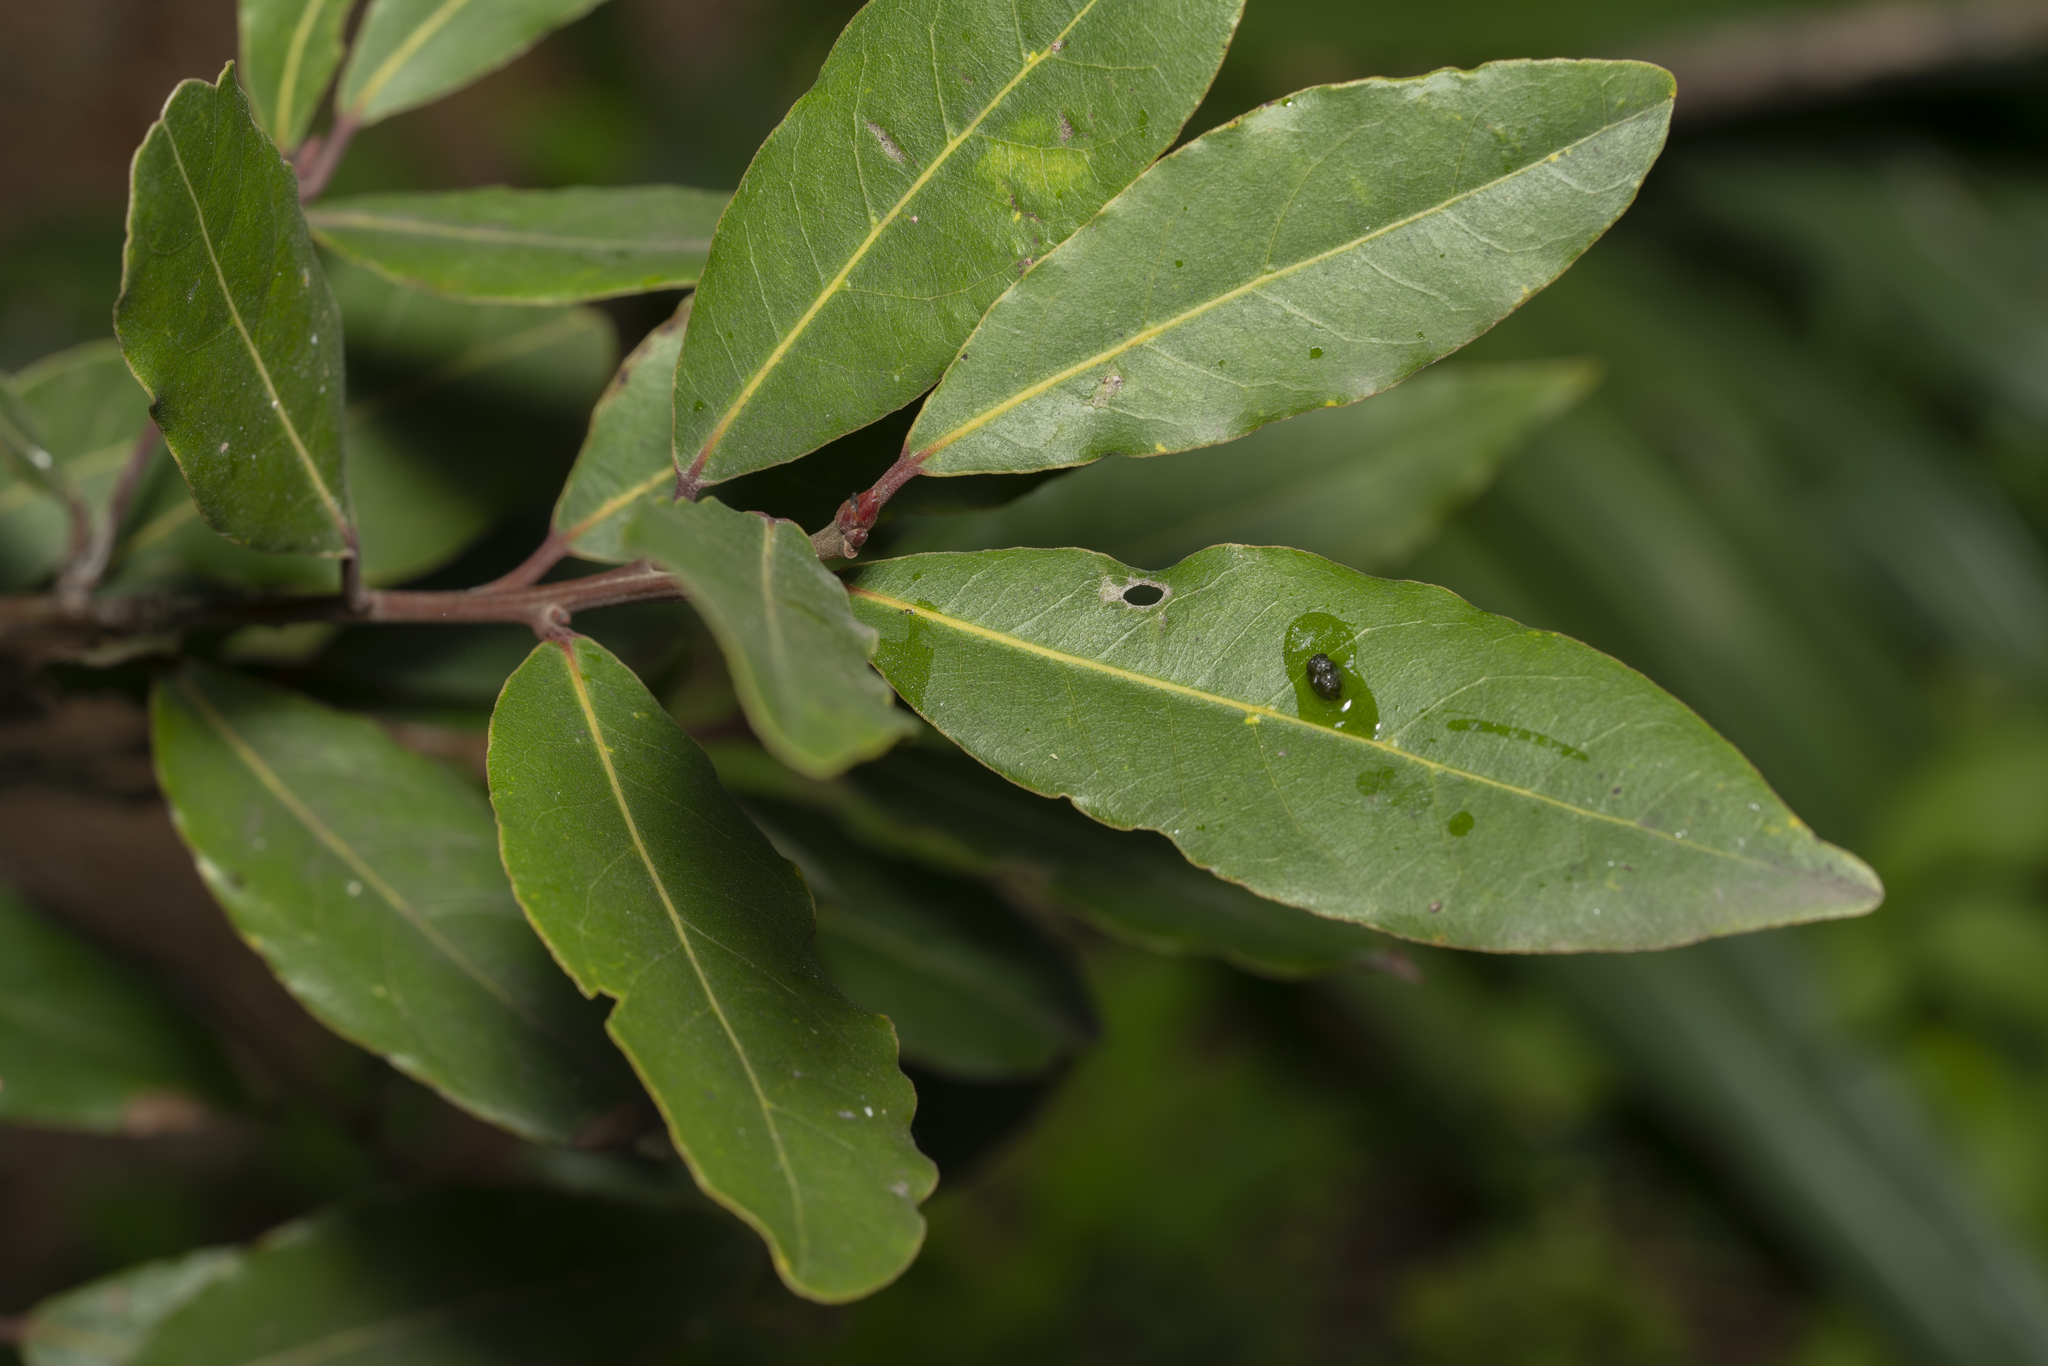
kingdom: Plantae
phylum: Tracheophyta
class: Magnoliopsida
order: Laurales
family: Lauraceae
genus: Laurus
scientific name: Laurus nobilis
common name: Bay
